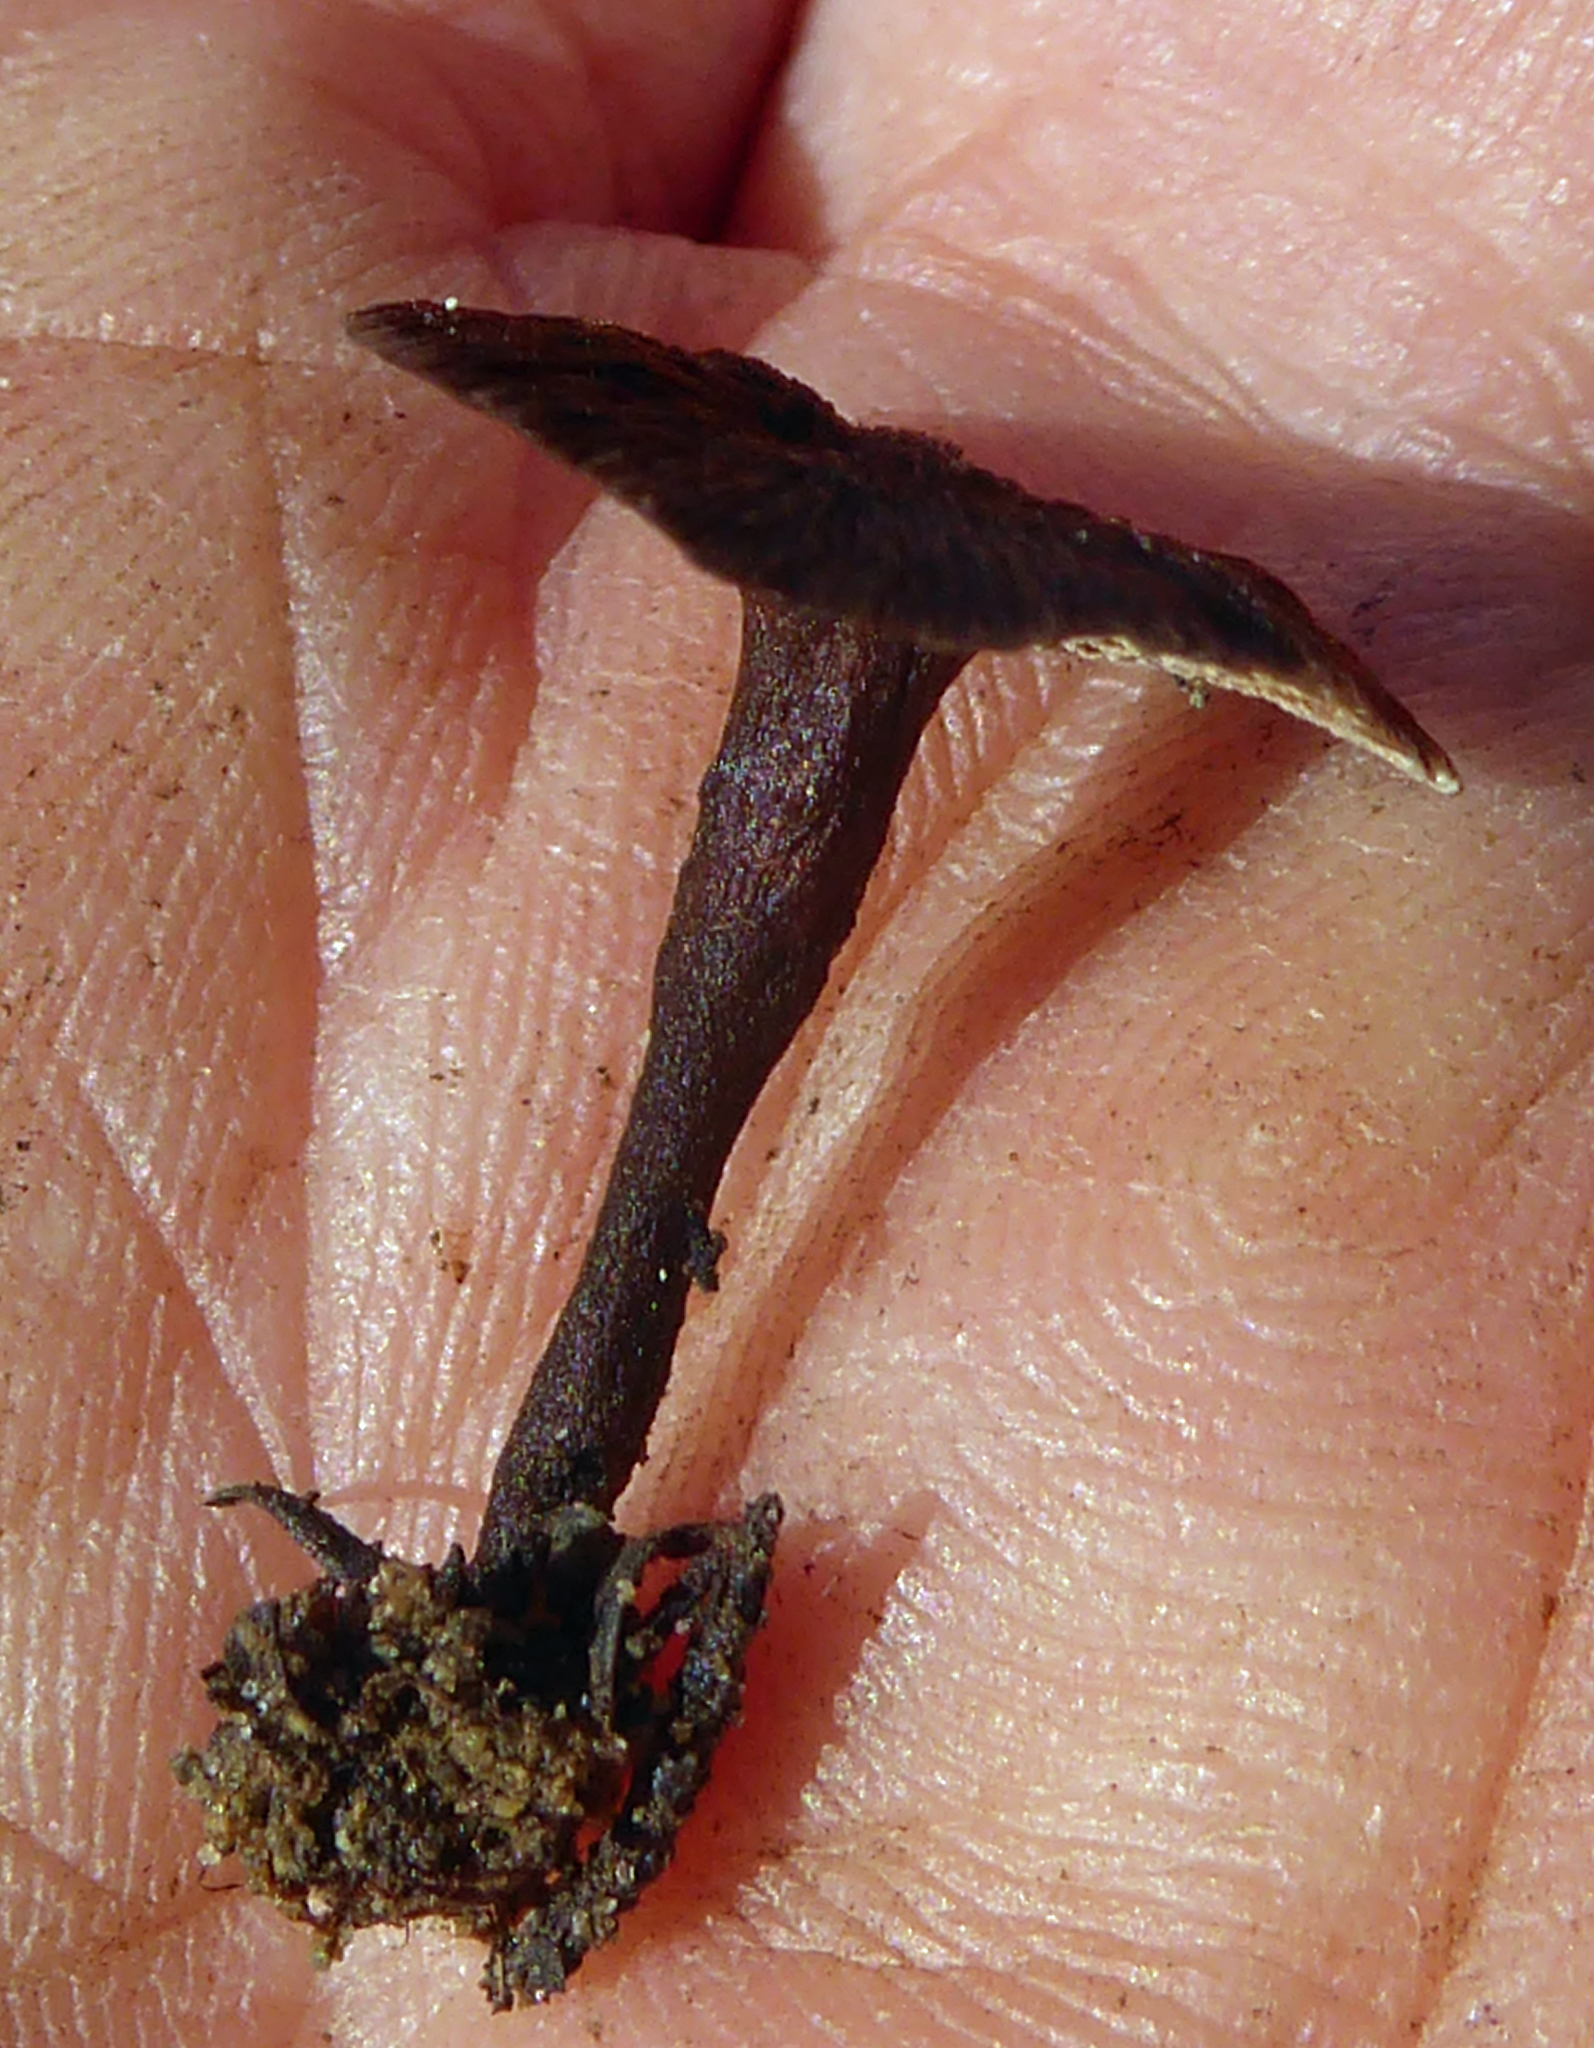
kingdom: Fungi
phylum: Basidiomycota
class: Agaricomycetes
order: Hymenochaetales
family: Hymenochaetaceae
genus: Coltricia
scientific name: Coltricia cinnamomea
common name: Shiny cinnamon polypore
